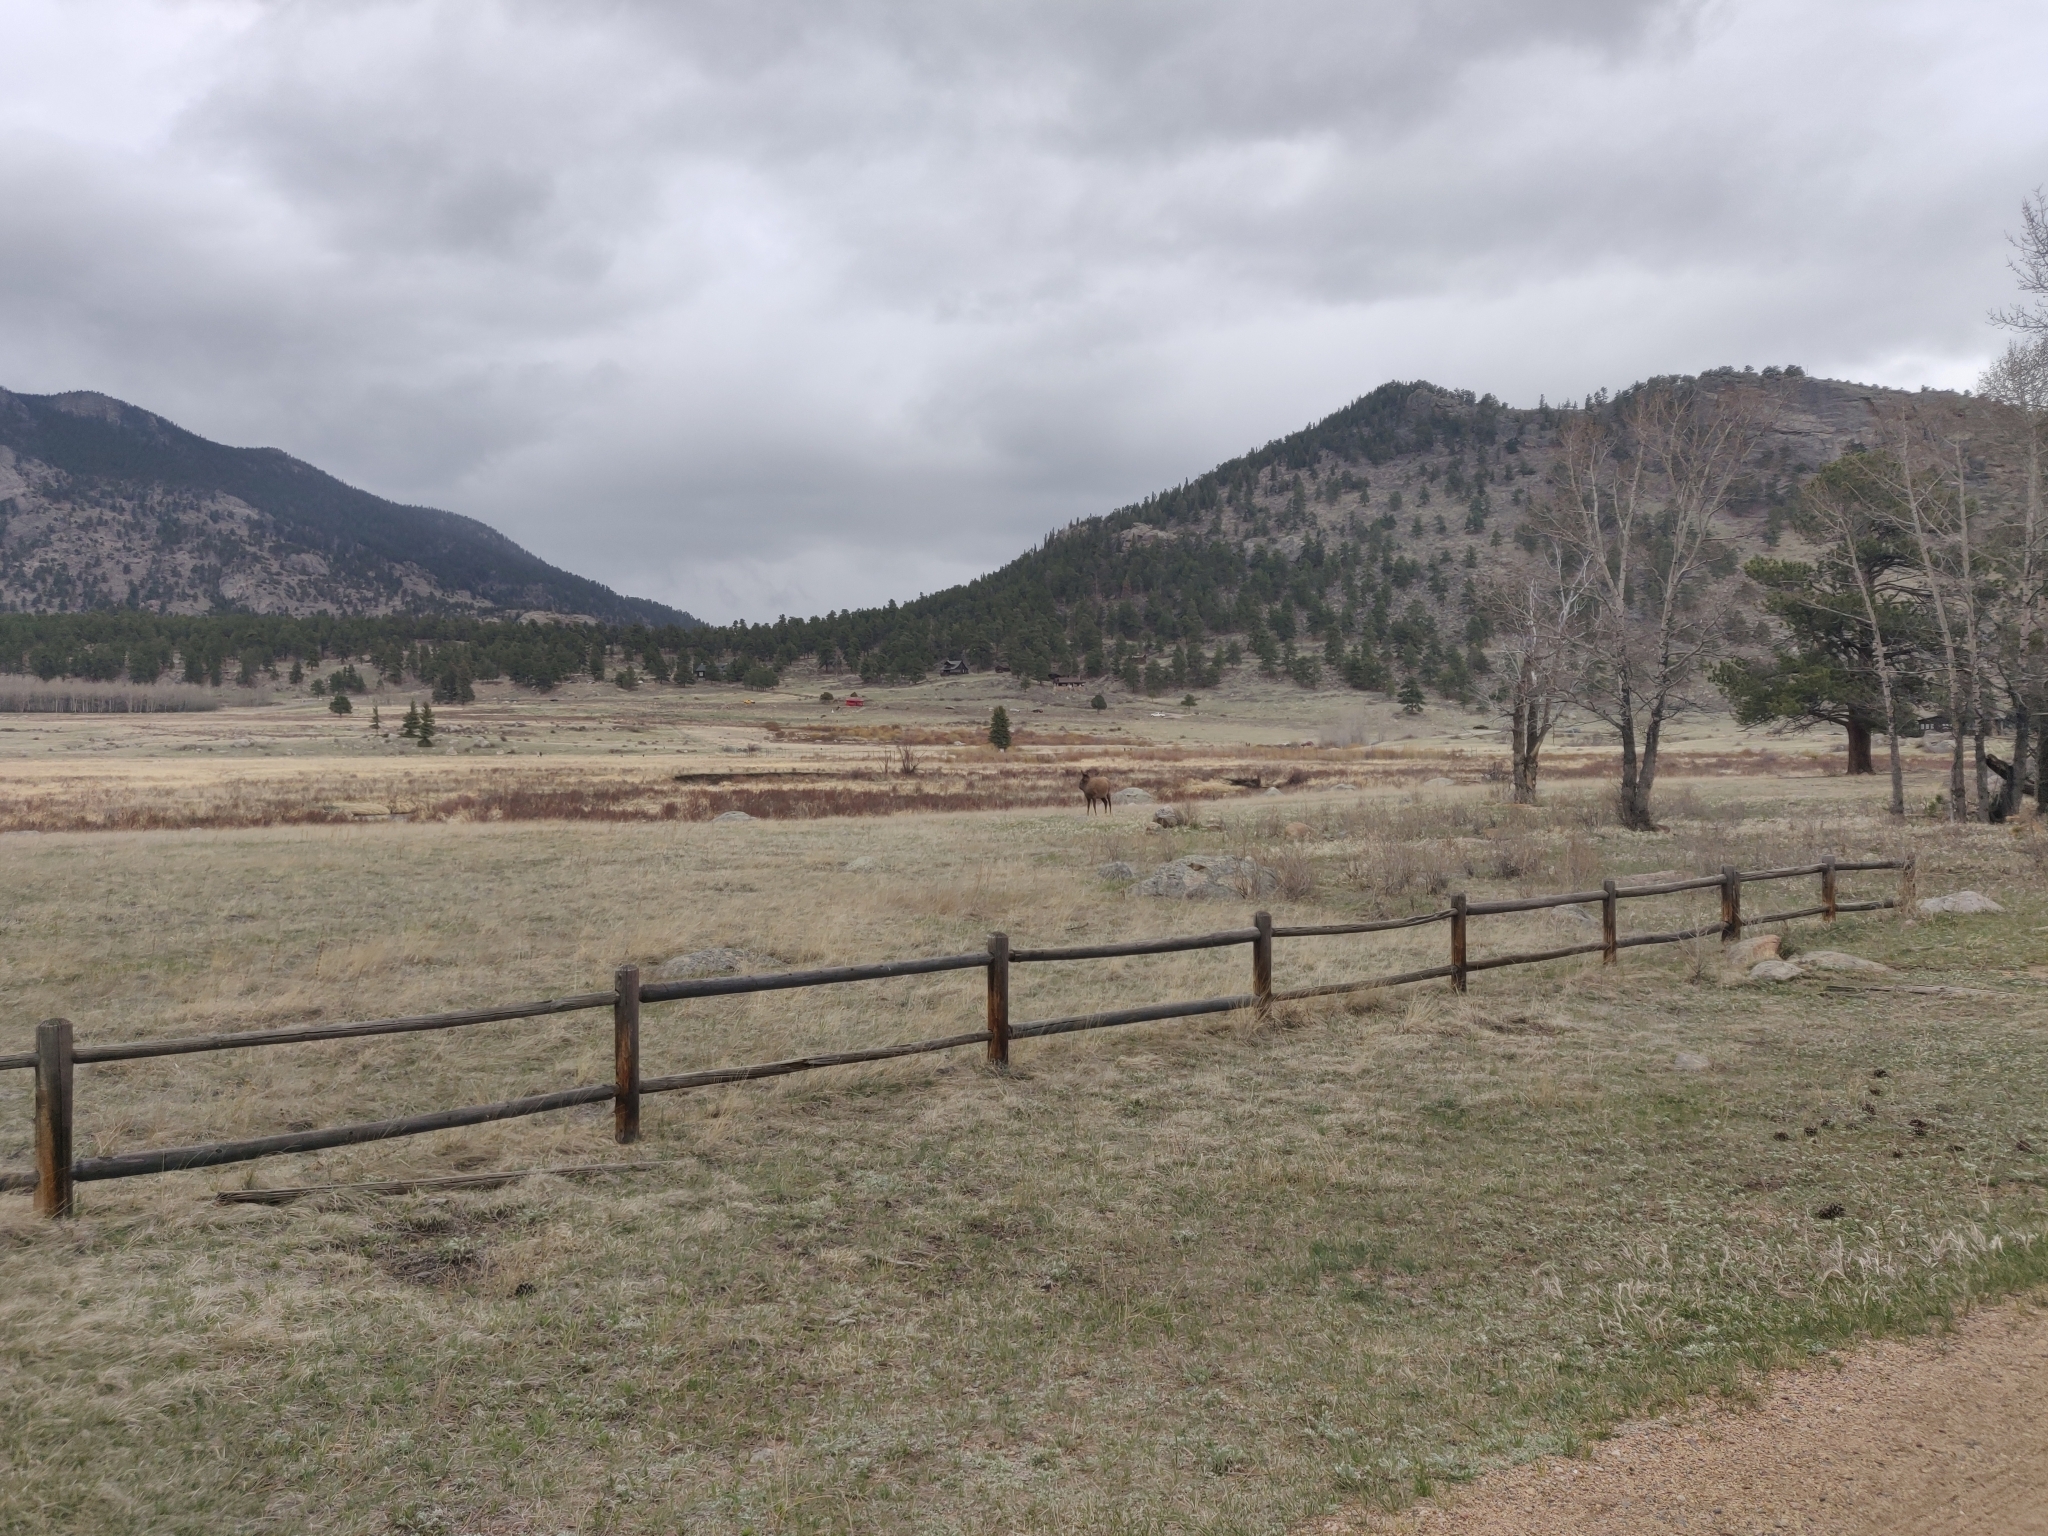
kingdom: Animalia
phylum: Chordata
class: Mammalia
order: Artiodactyla
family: Cervidae
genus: Cervus
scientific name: Cervus elaphus
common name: Red deer
